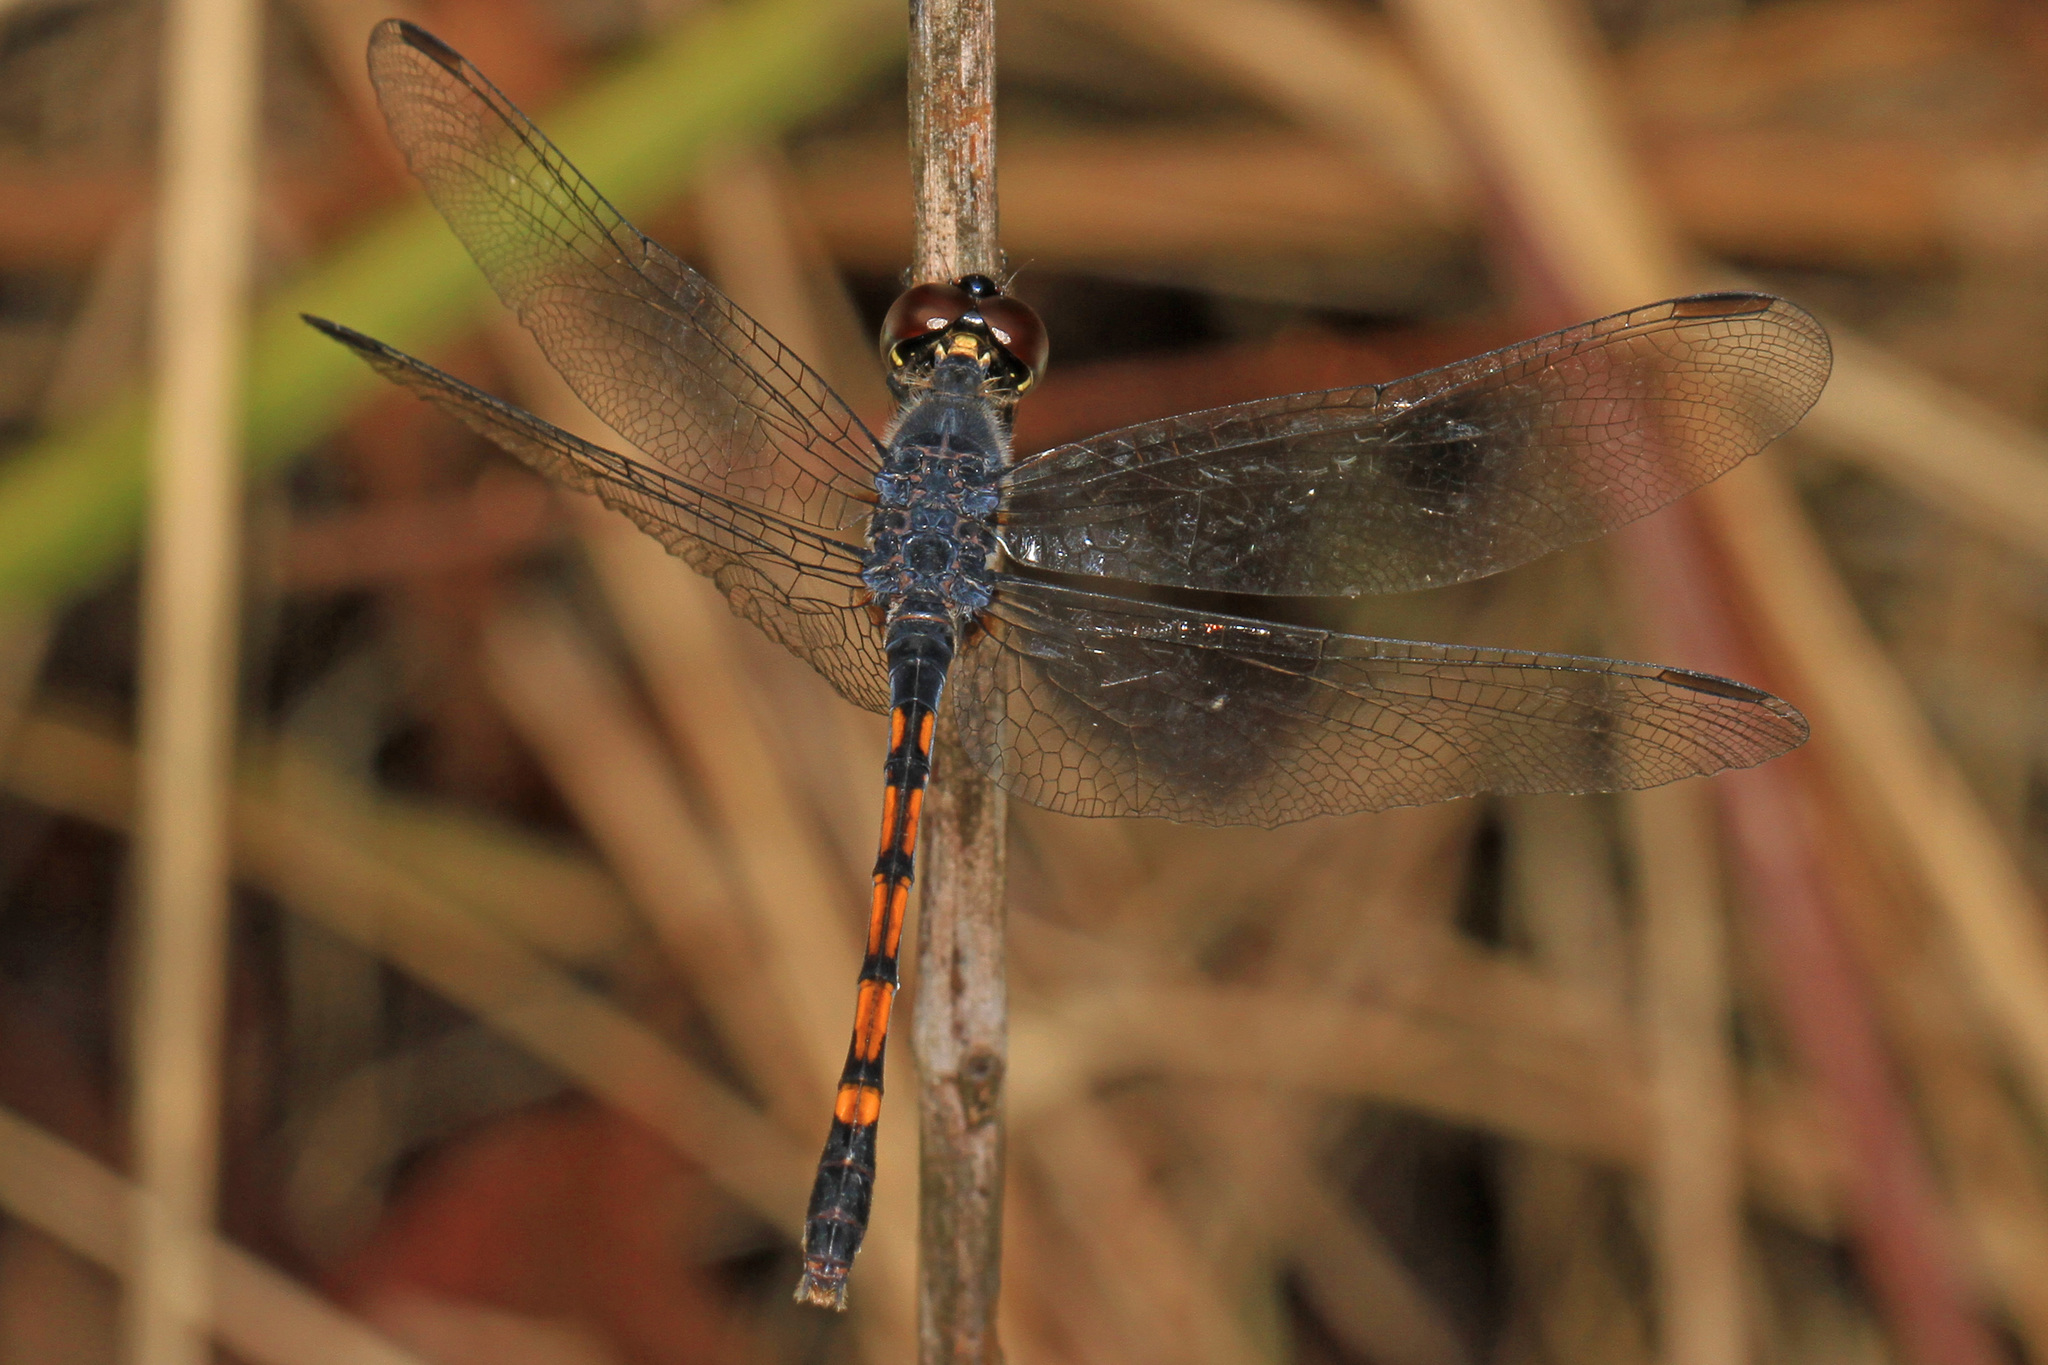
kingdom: Animalia
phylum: Arthropoda
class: Insecta
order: Odonata
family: Libellulidae
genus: Erythrodiplax
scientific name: Erythrodiplax berenice
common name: Seaside dragonlet
